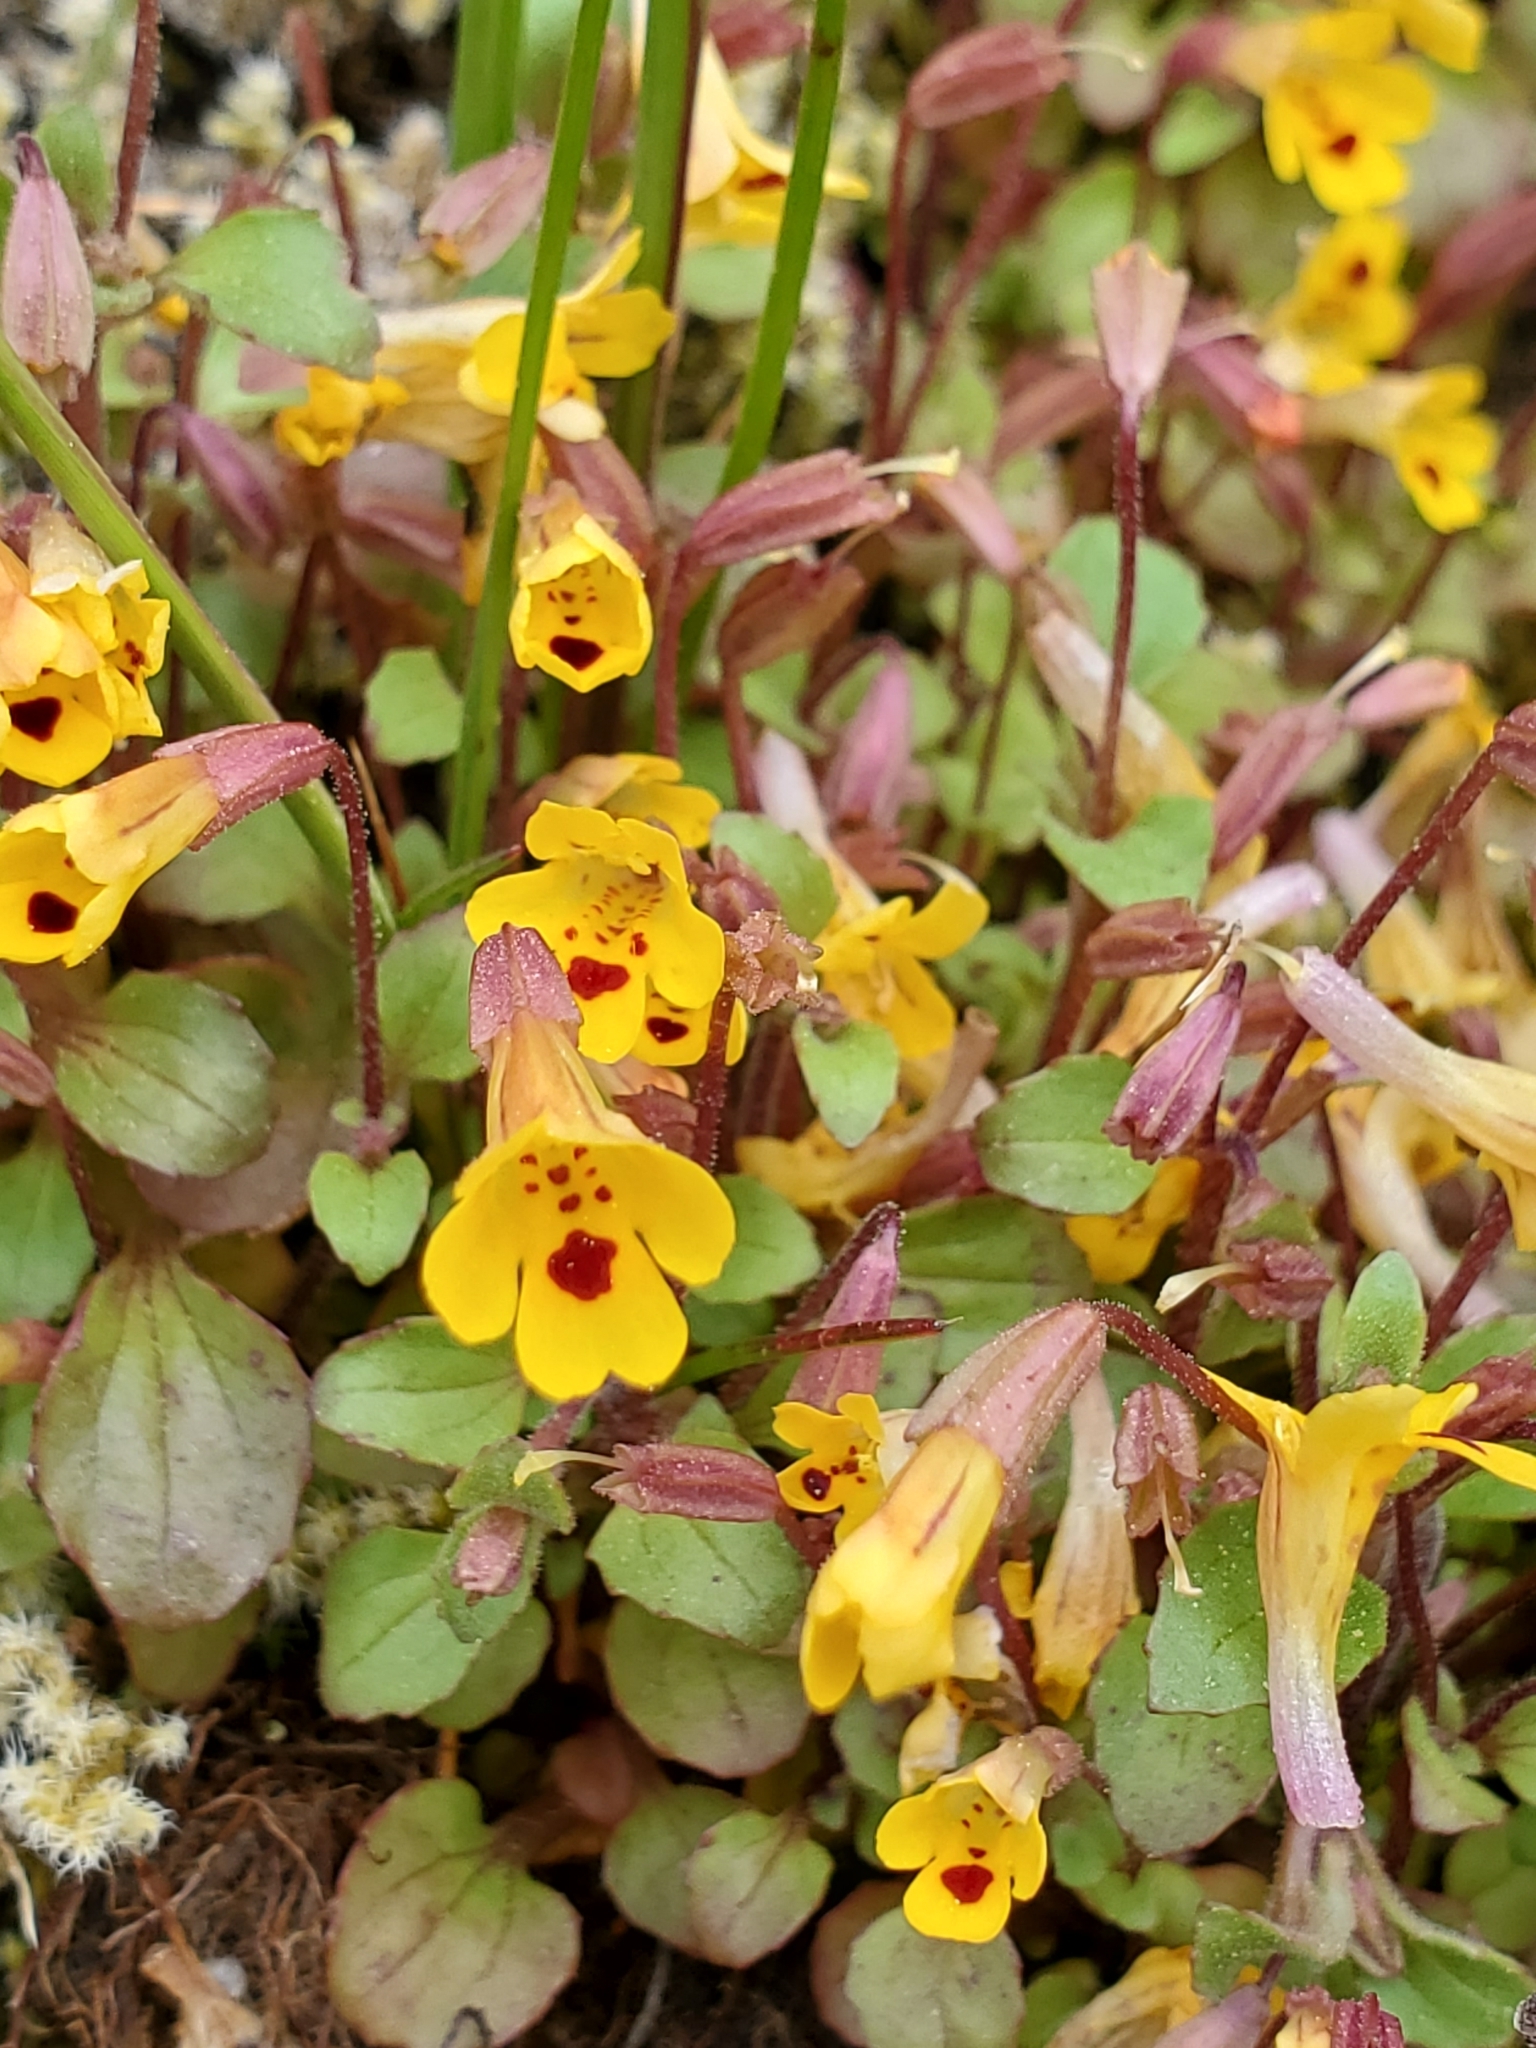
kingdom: Plantae
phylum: Tracheophyta
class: Magnoliopsida
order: Lamiales
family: Phrymaceae
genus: Erythranthe
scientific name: Erythranthe alsinoides
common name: Chickweed monkeyflower
